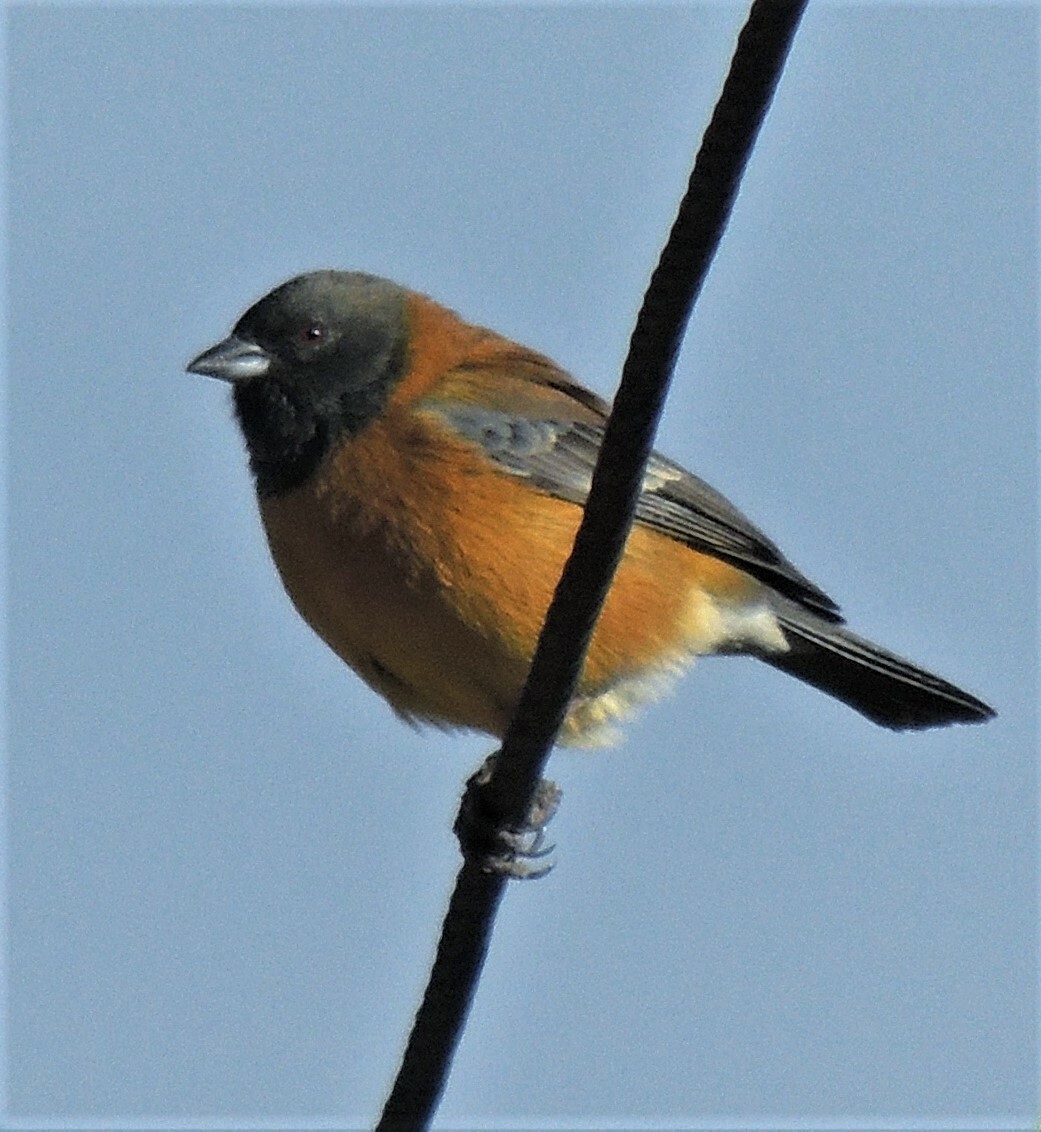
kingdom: Animalia
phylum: Chordata
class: Aves
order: Passeriformes
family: Thraupidae
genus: Phrygilus
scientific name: Phrygilus atriceps
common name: Black-hooded sierra finch
